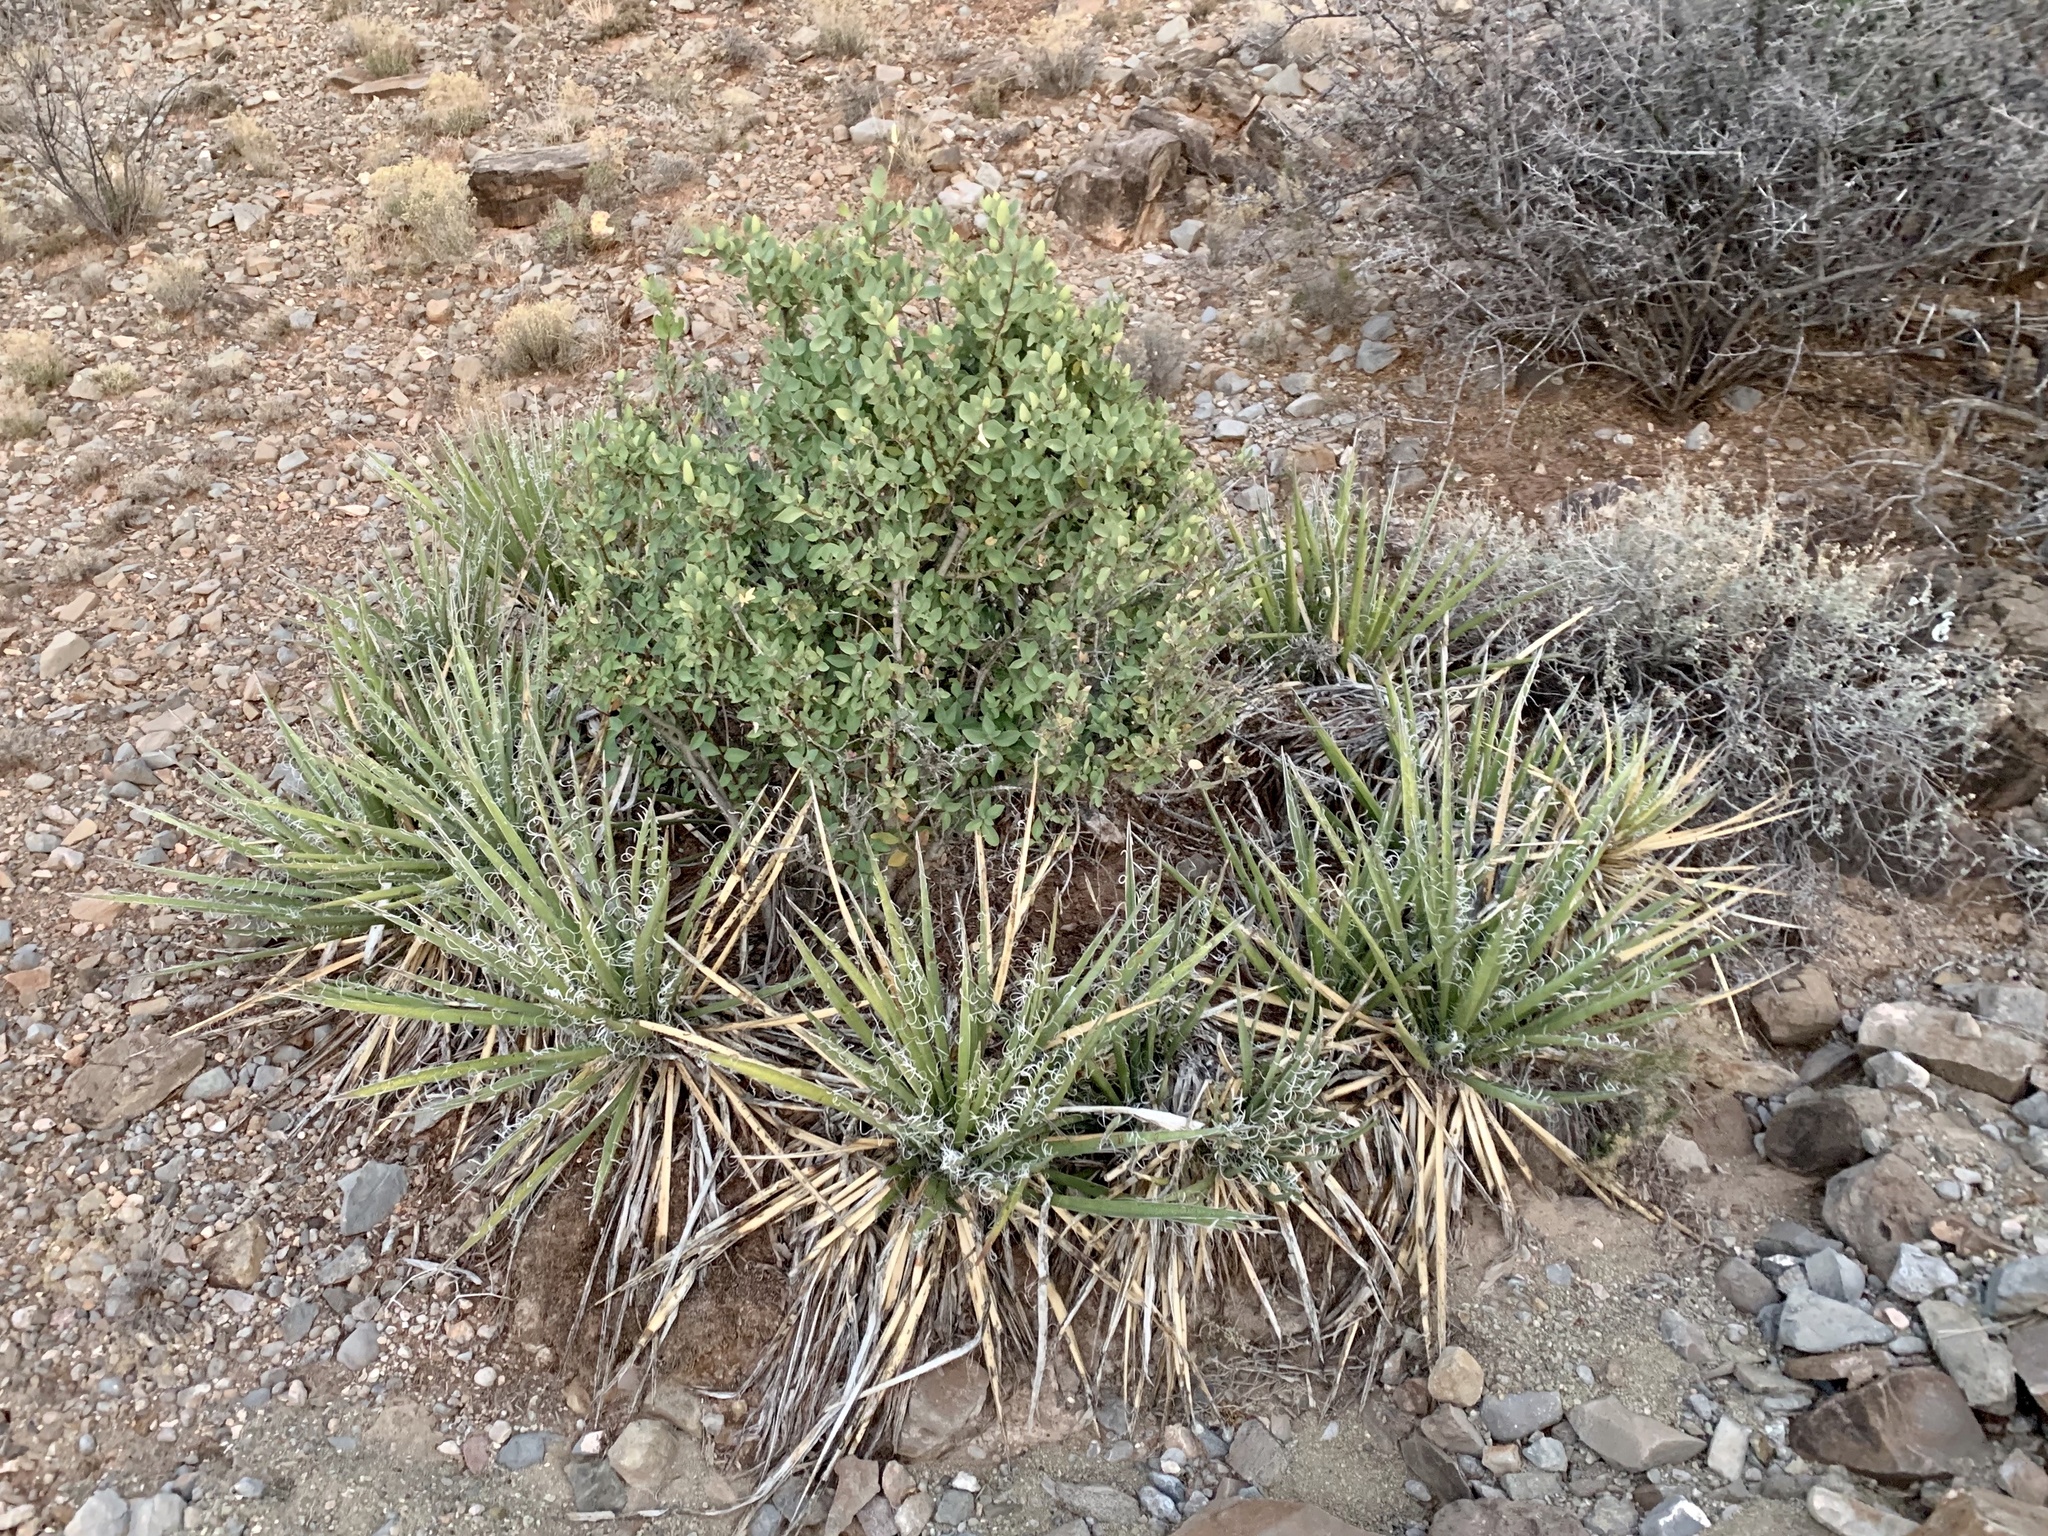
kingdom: Plantae
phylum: Tracheophyta
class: Liliopsida
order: Asparagales
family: Asparagaceae
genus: Yucca
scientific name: Yucca baccata
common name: Banana yucca
